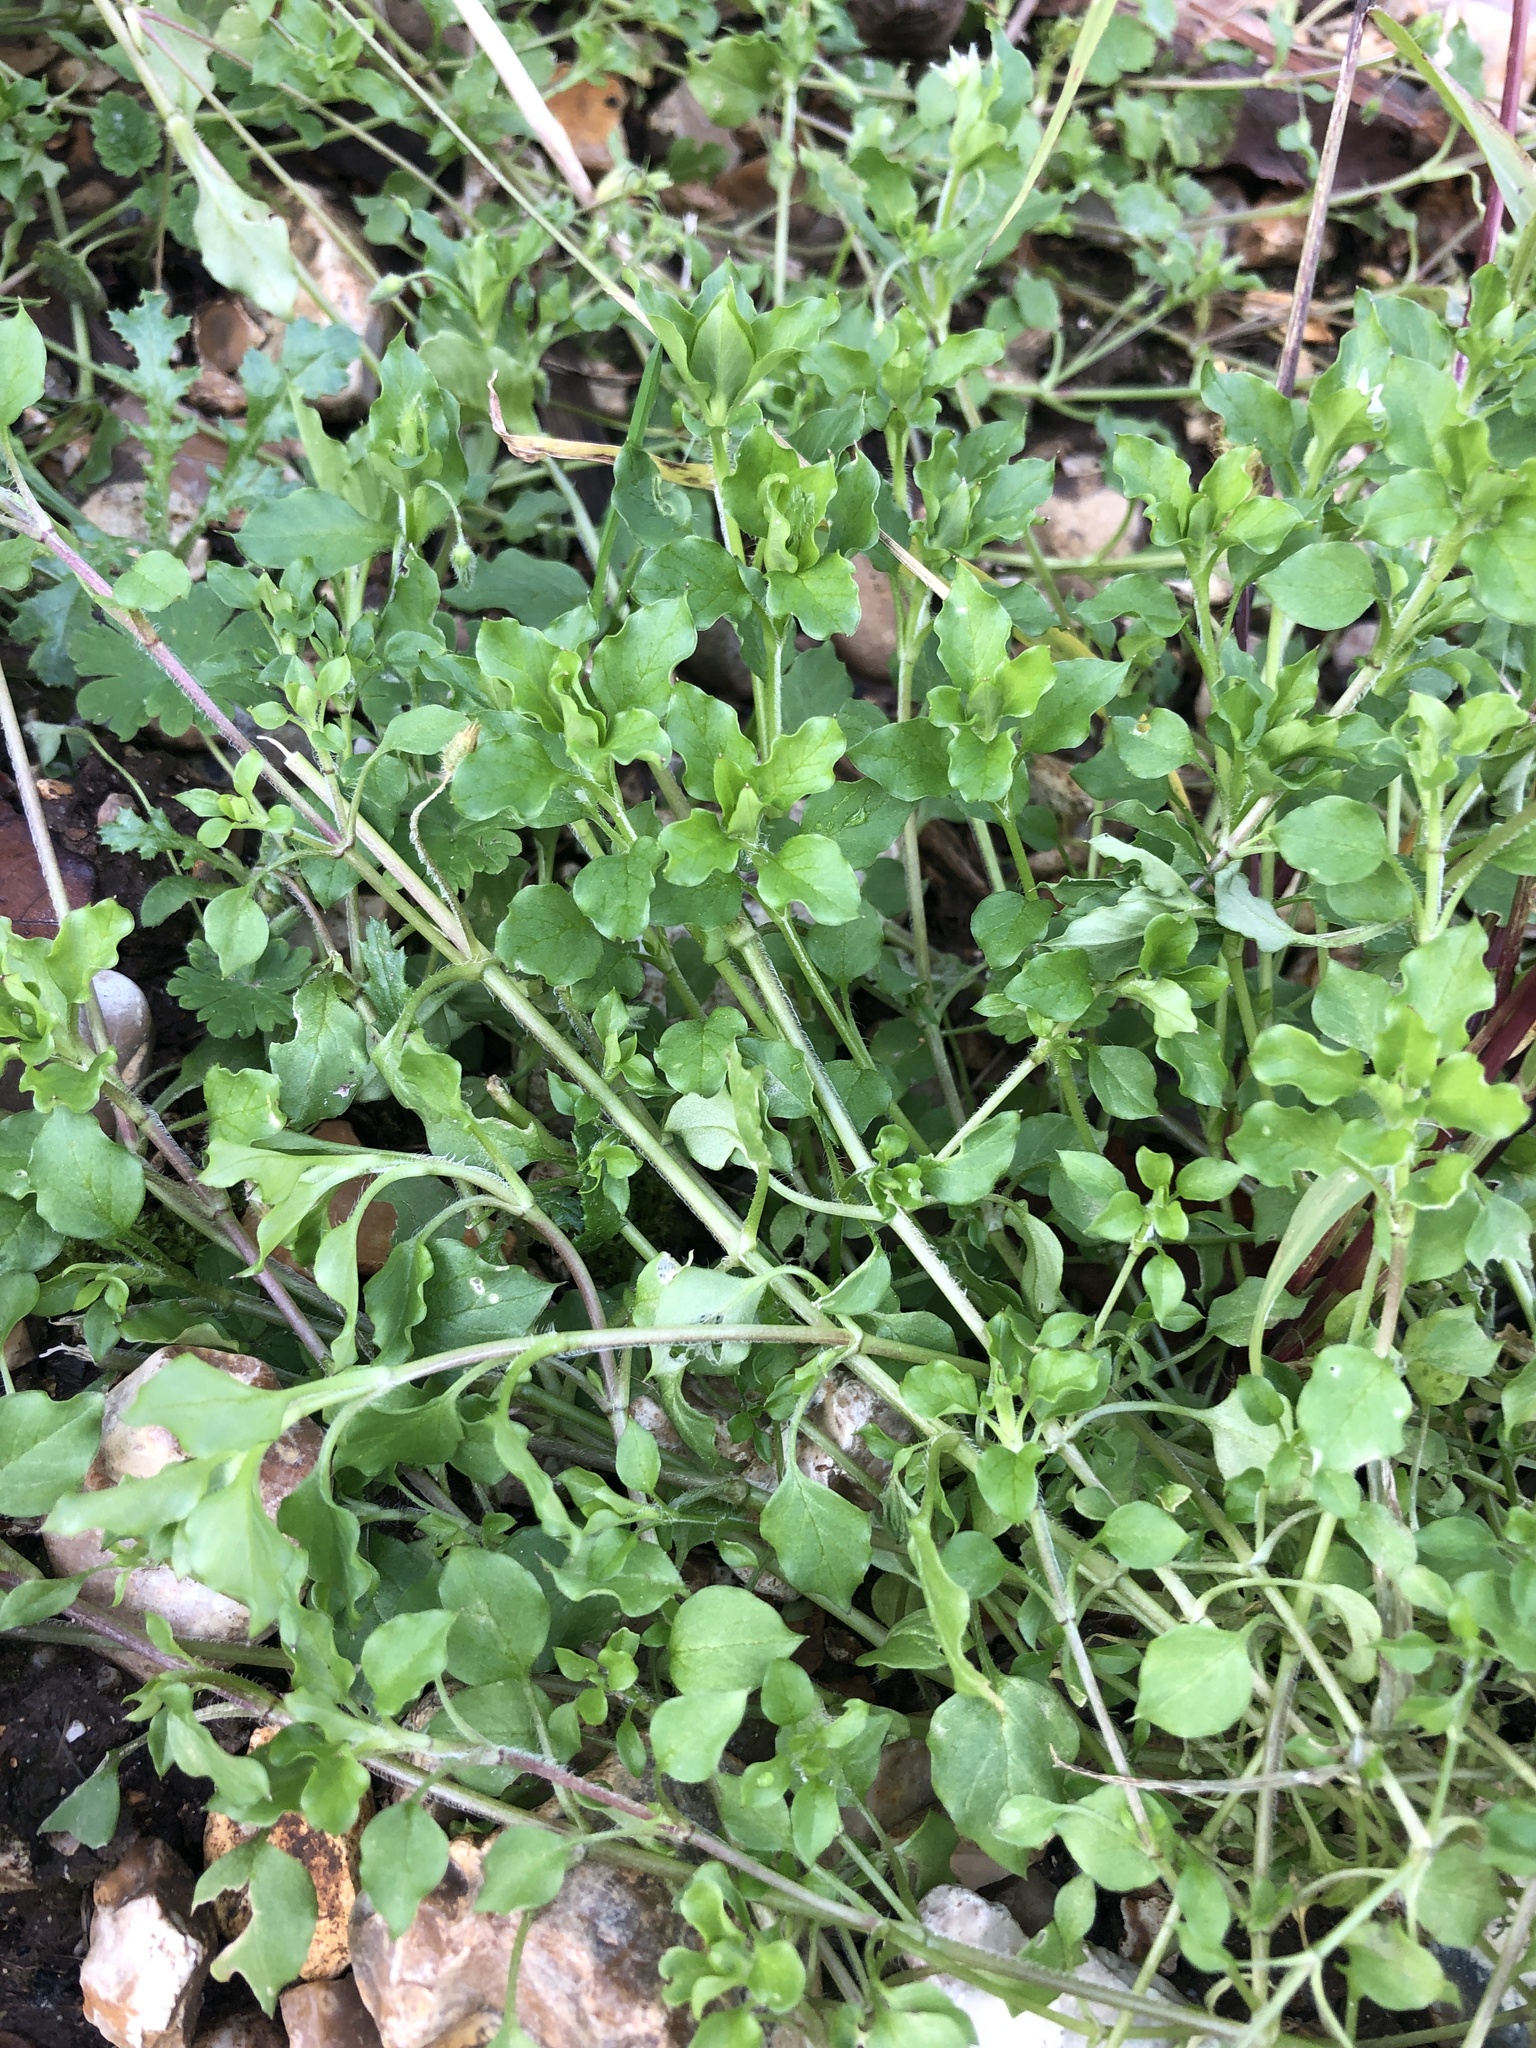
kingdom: Plantae
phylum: Tracheophyta
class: Magnoliopsida
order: Caryophyllales
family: Caryophyllaceae
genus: Stellaria
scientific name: Stellaria media
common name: Common chickweed
